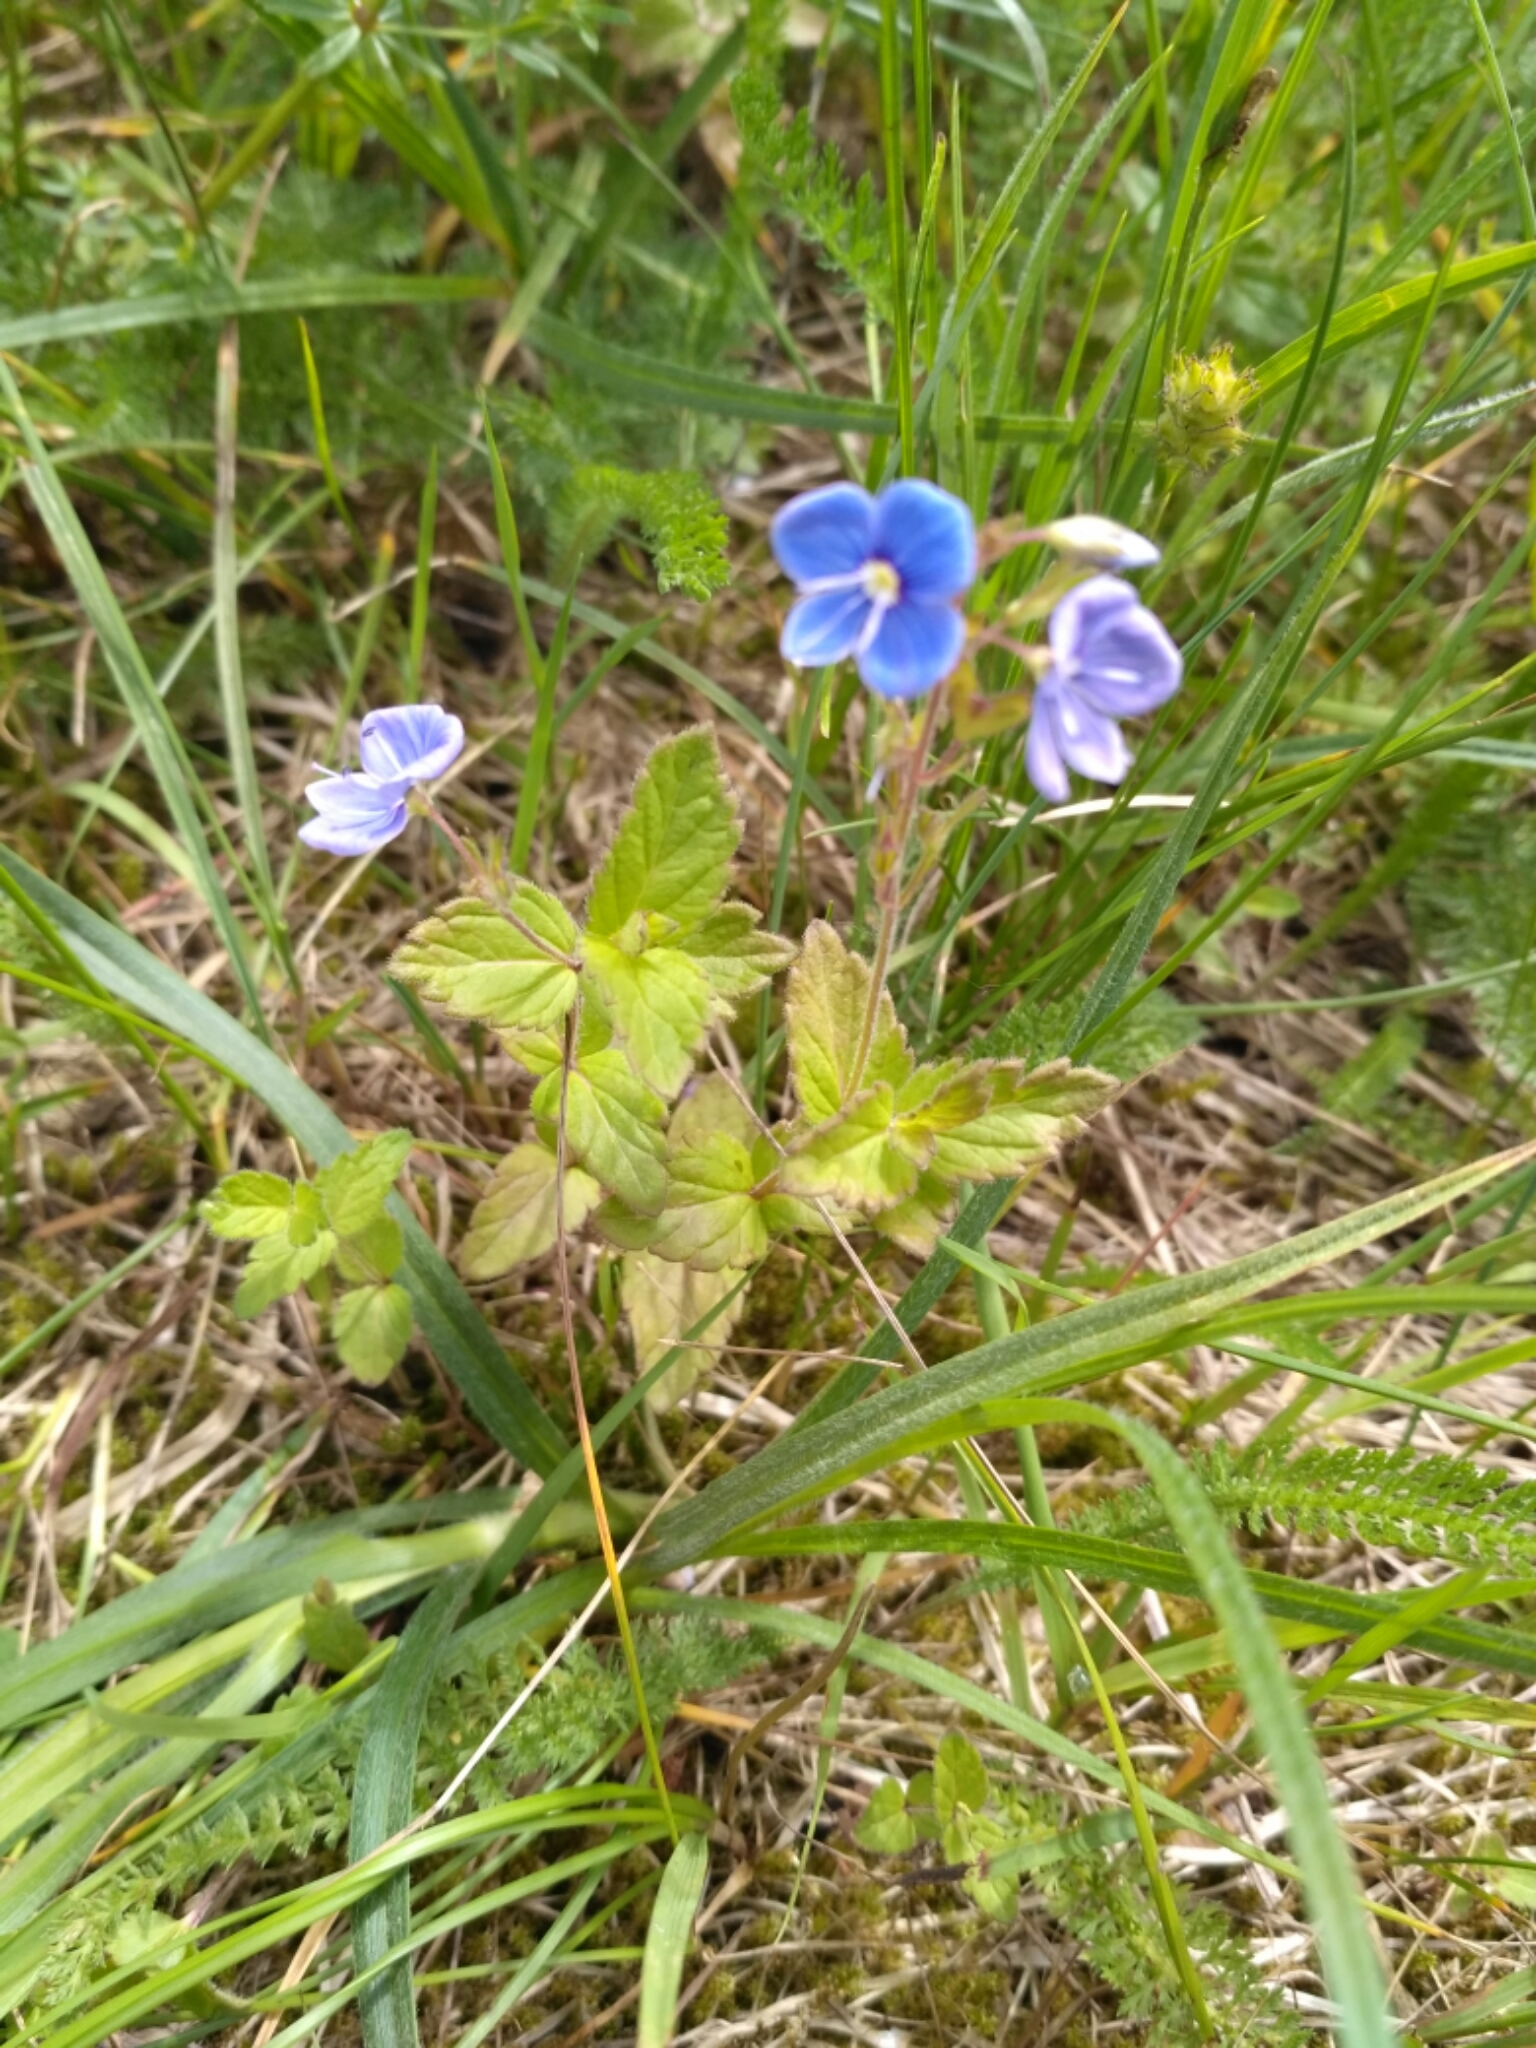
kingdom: Plantae
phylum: Tracheophyta
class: Magnoliopsida
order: Lamiales
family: Plantaginaceae
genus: Veronica
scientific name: Veronica chamaedrys
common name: Germander speedwell
